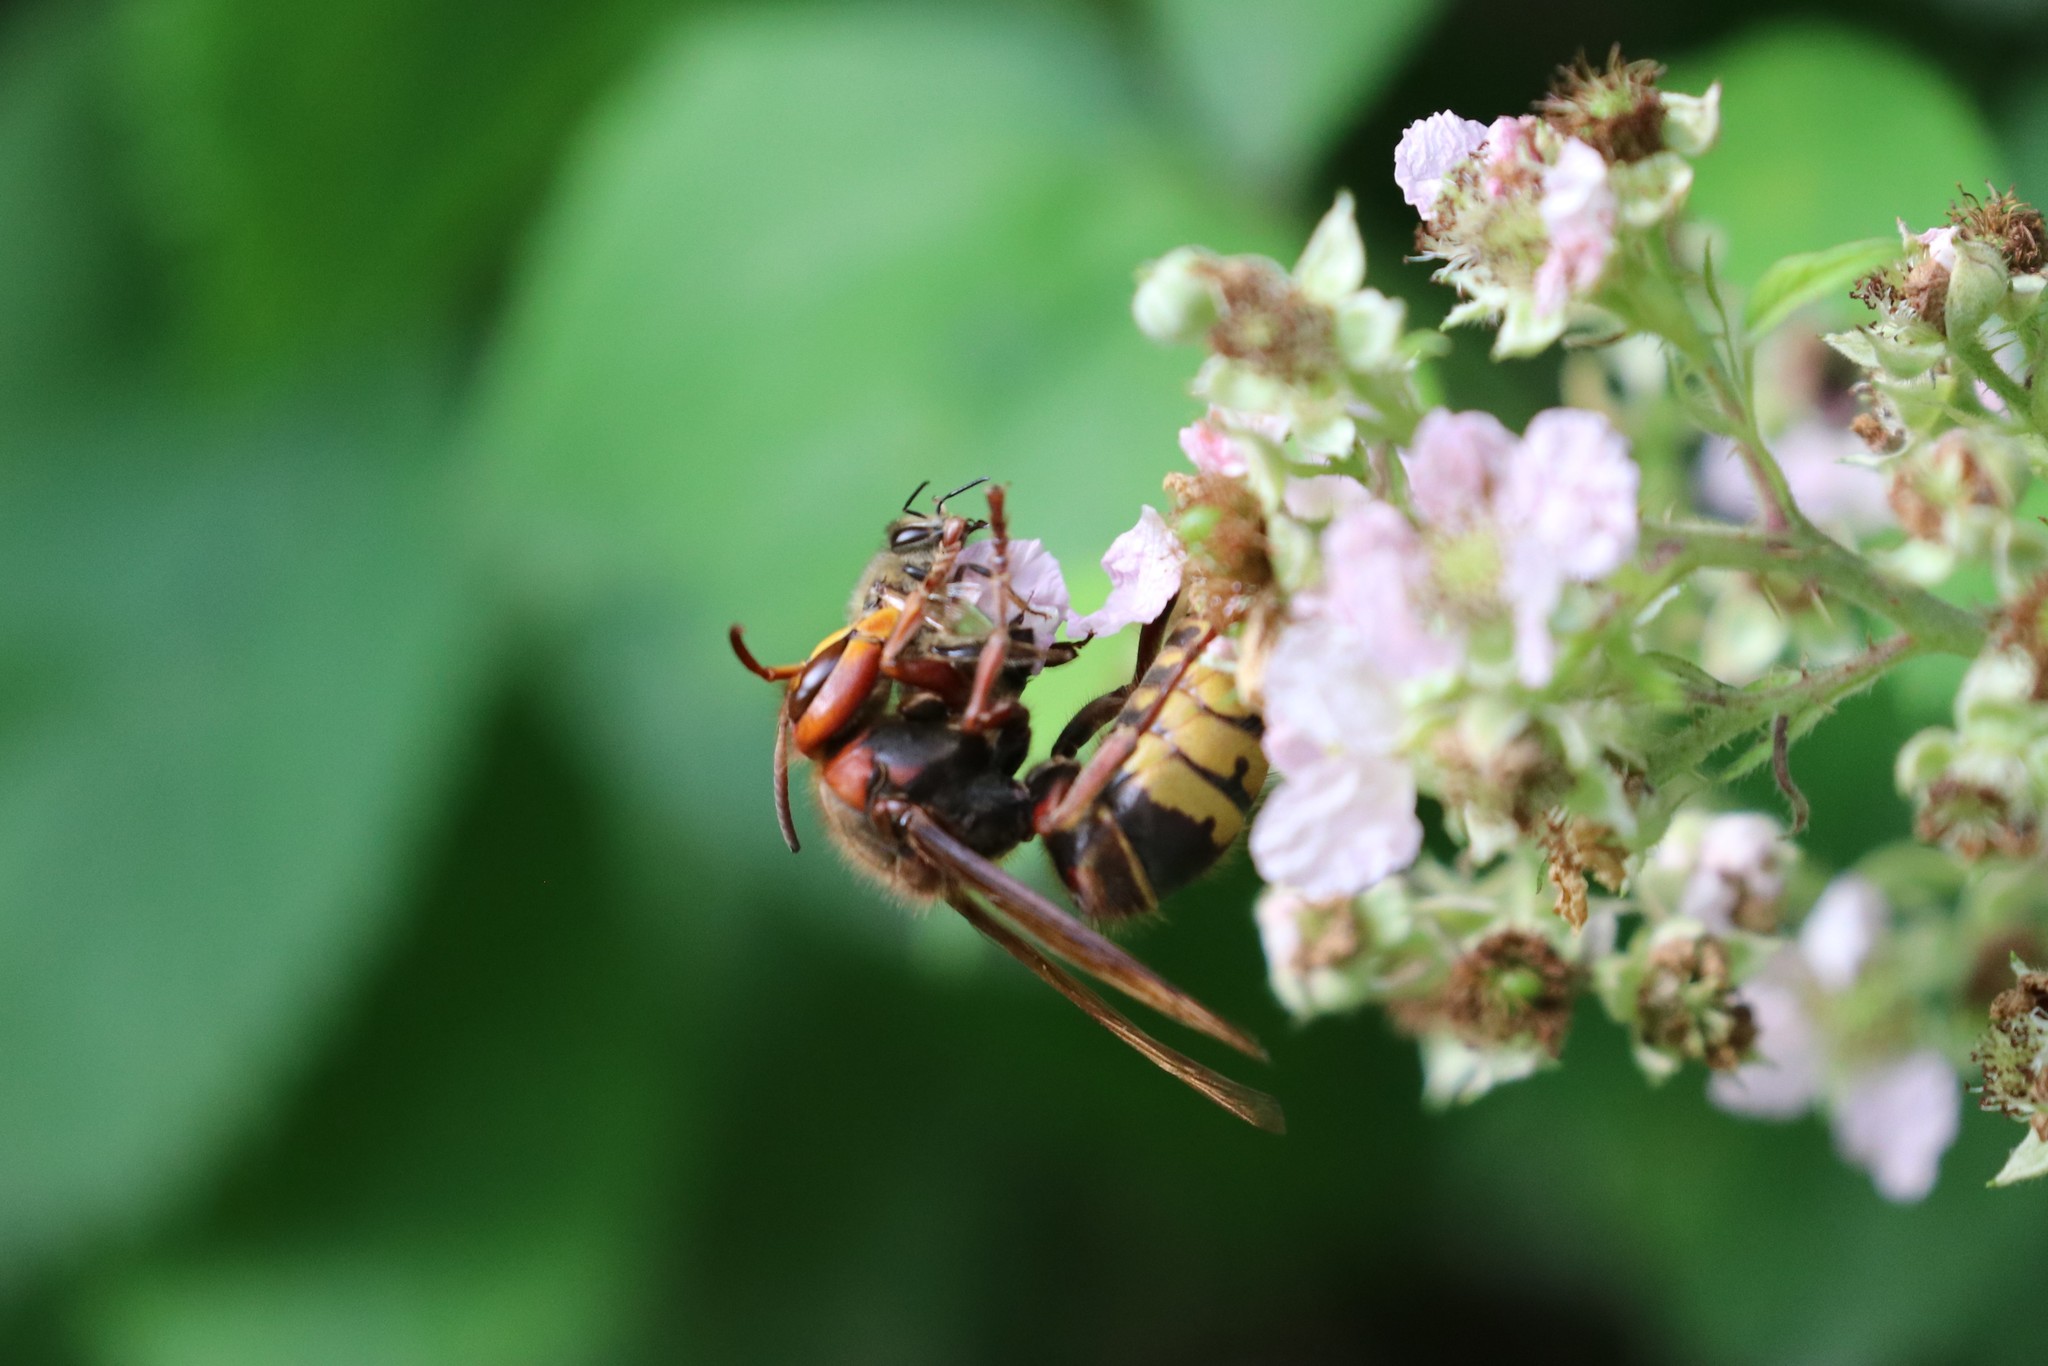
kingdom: Animalia
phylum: Arthropoda
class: Insecta
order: Hymenoptera
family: Vespidae
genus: Vespa
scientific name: Vespa crabro
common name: Hornet
